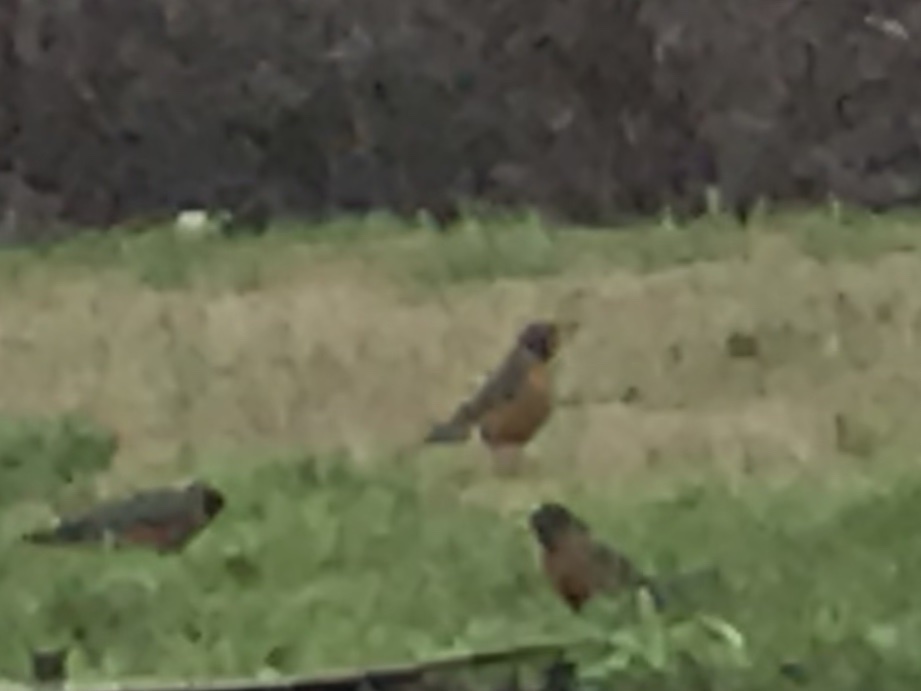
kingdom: Animalia
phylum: Chordata
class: Aves
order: Passeriformes
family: Turdidae
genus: Turdus
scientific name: Turdus migratorius
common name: American robin
